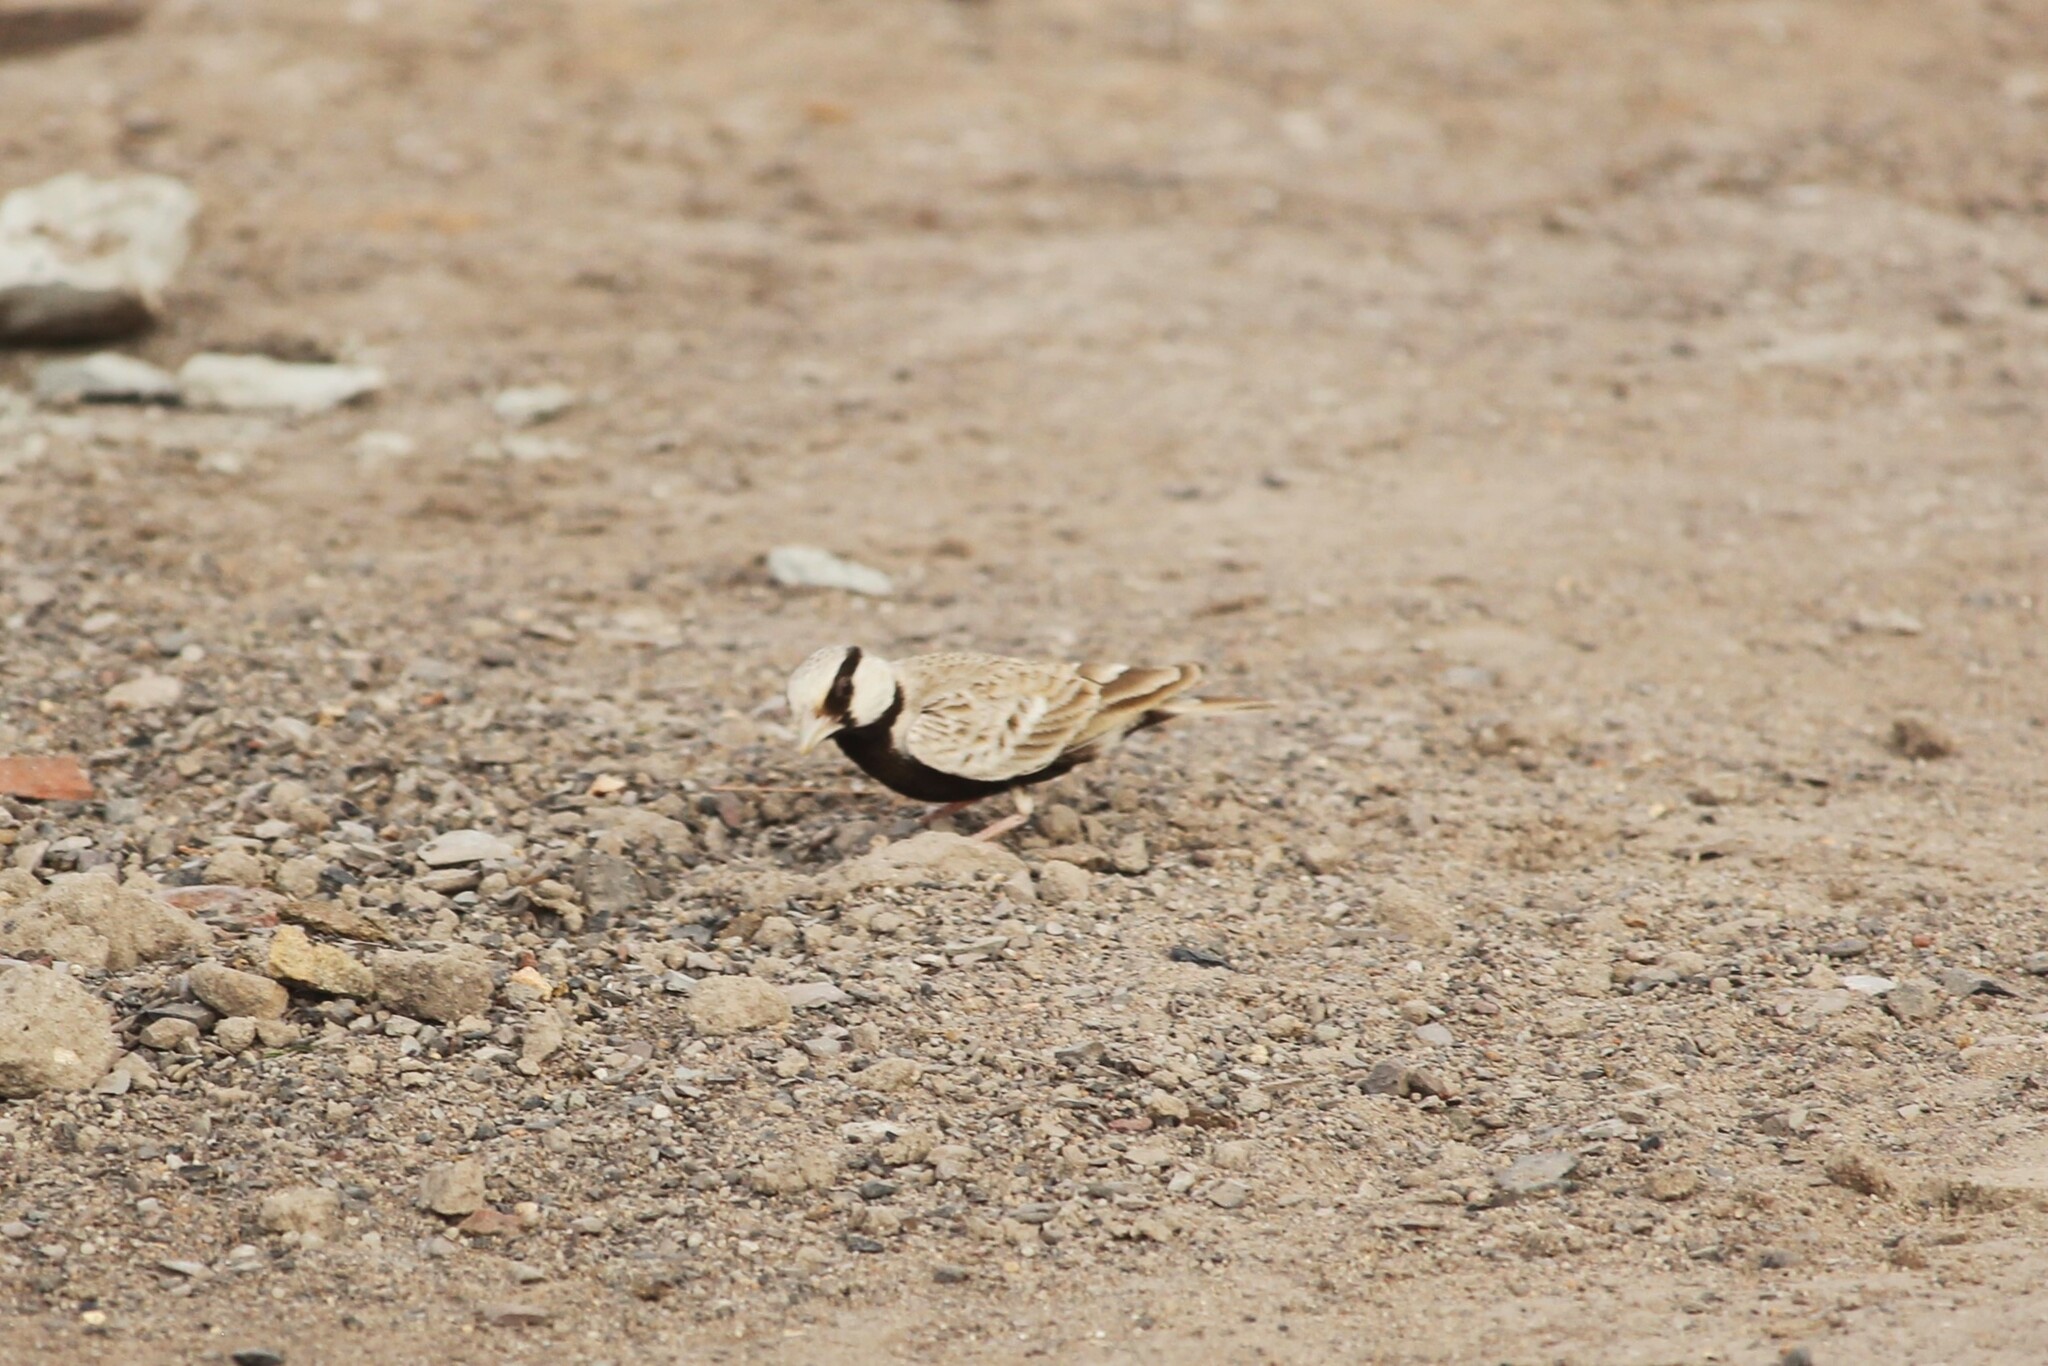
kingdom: Animalia
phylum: Chordata
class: Aves
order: Passeriformes
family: Alaudidae
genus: Eremopterix
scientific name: Eremopterix griseus
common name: Ashy-crowned sparrow-lark
